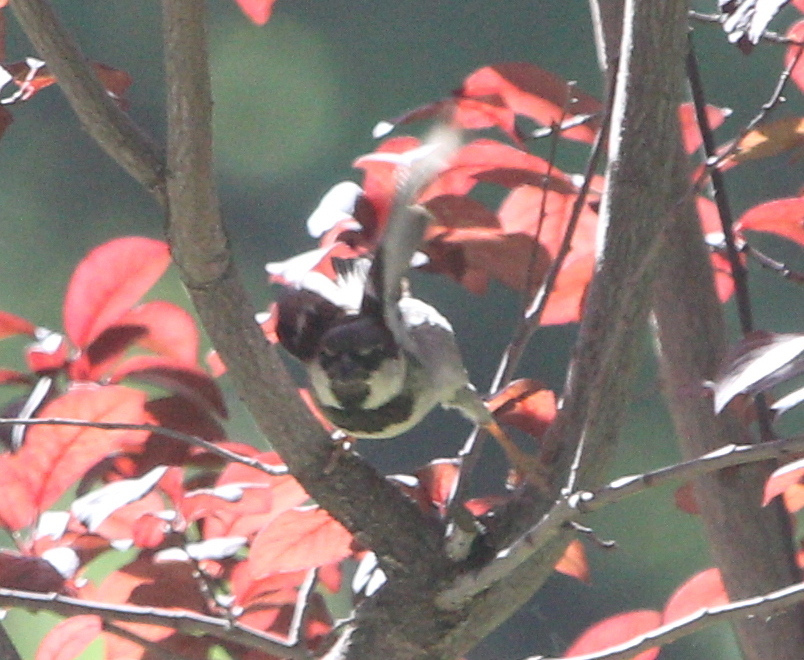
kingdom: Animalia
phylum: Chordata
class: Aves
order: Passeriformes
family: Passeridae
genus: Passer
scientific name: Passer domesticus
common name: House sparrow
